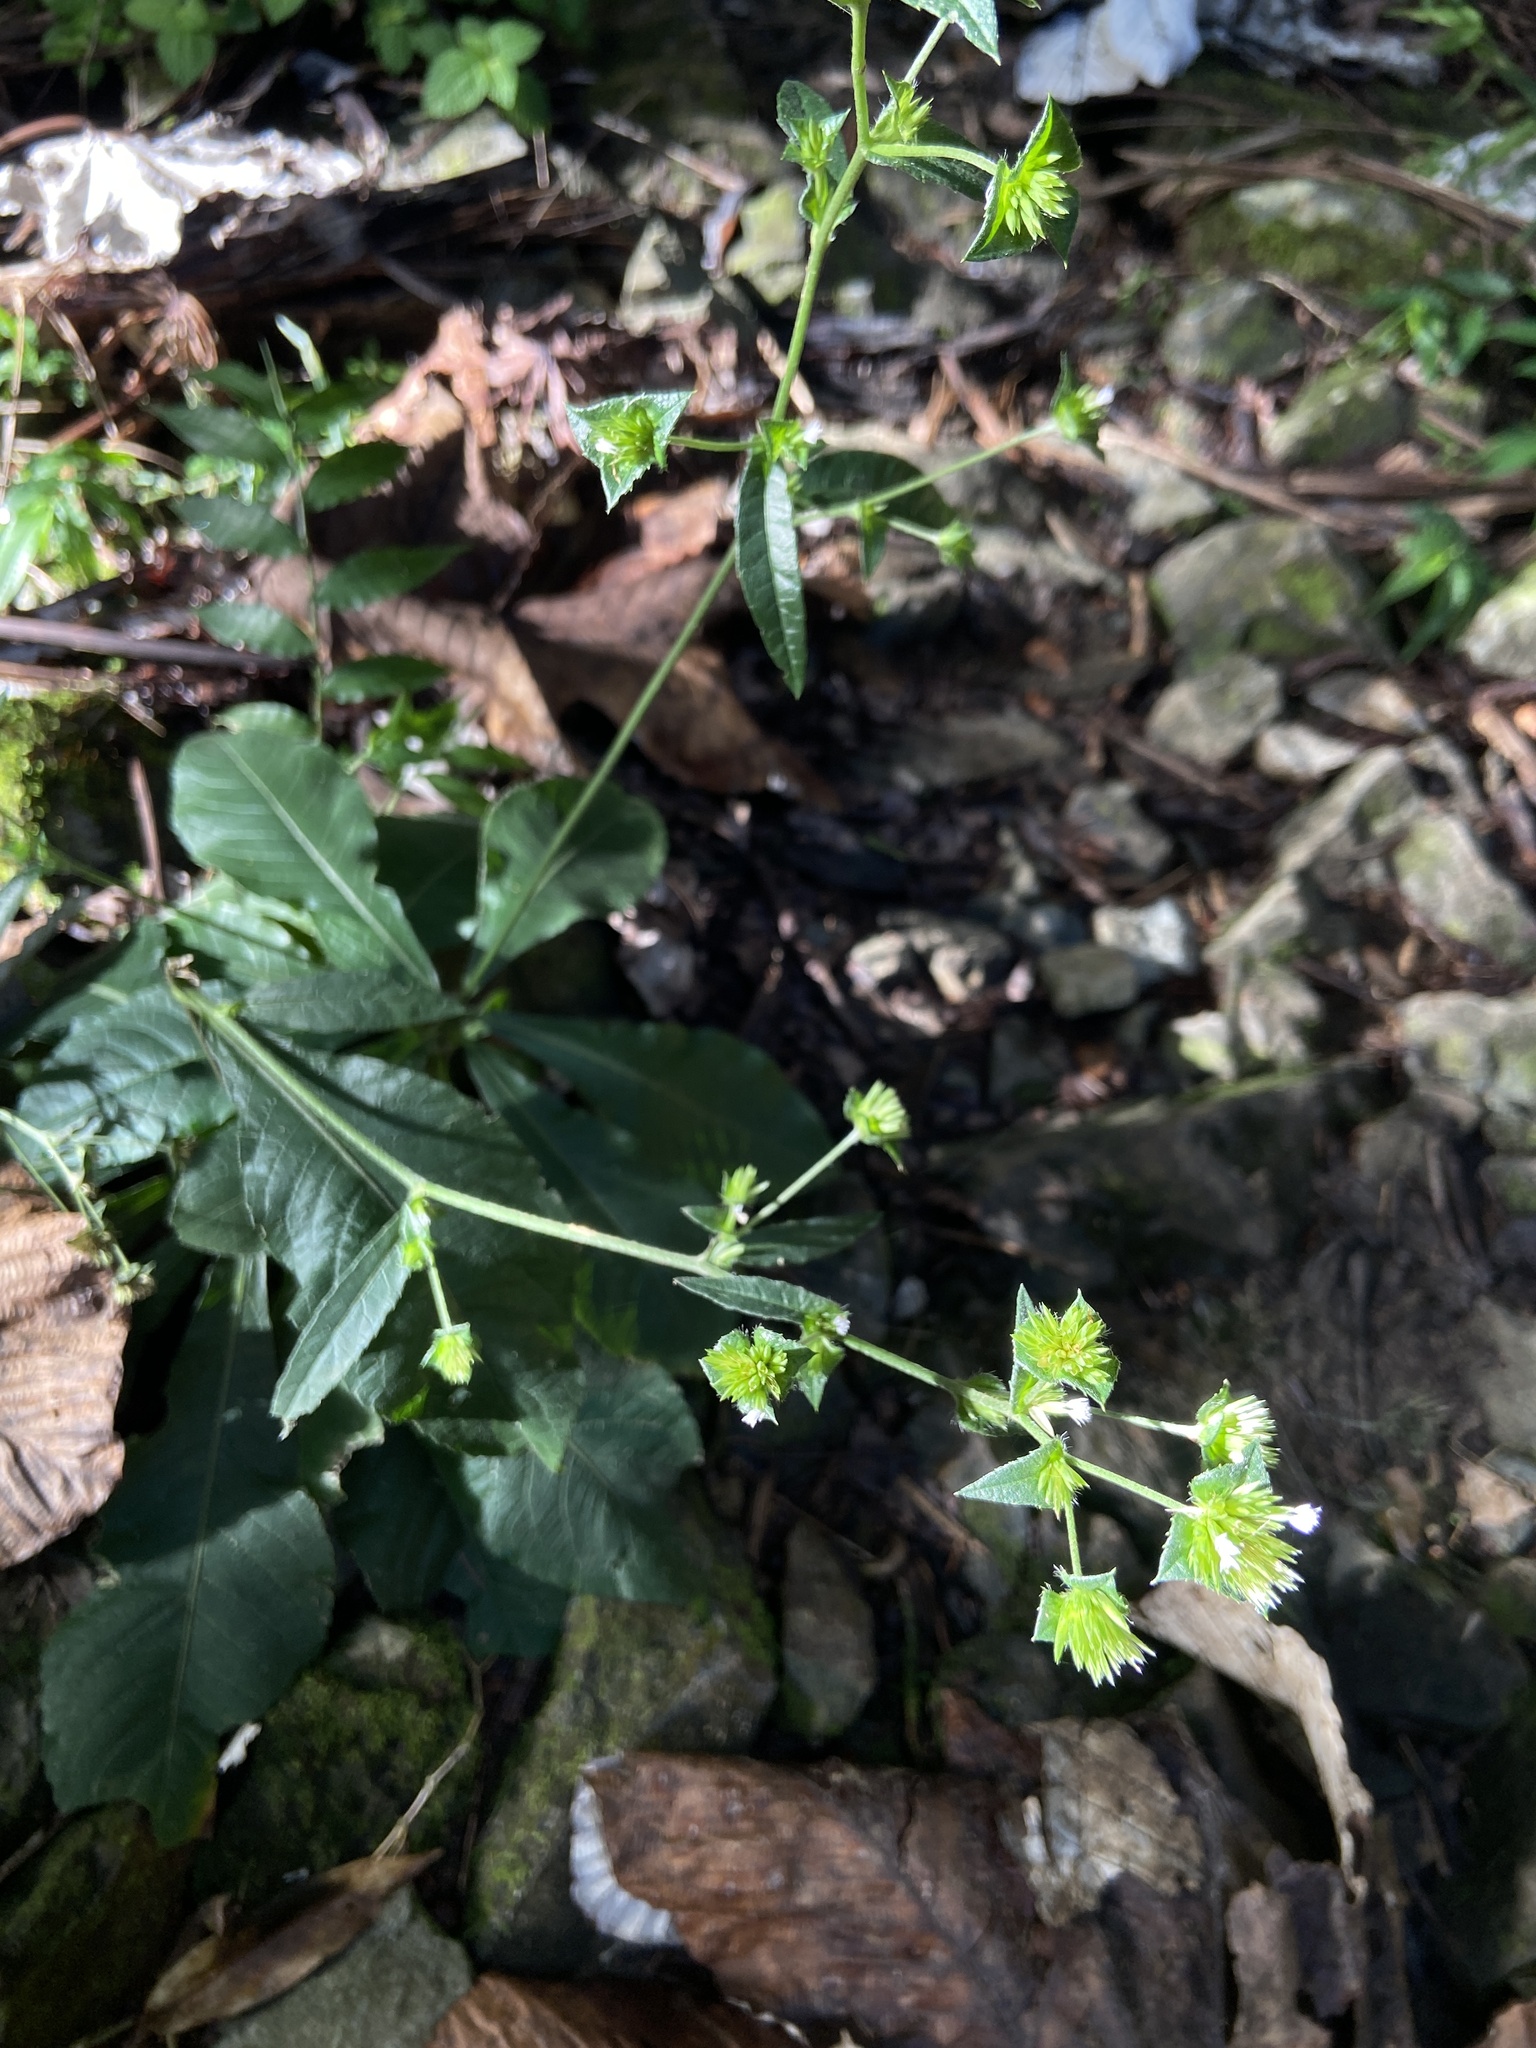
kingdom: Plantae
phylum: Tracheophyta
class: Magnoliopsida
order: Asterales
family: Asteraceae
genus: Elephantopus
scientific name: Elephantopus mollis
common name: Soft elephantsfoot
